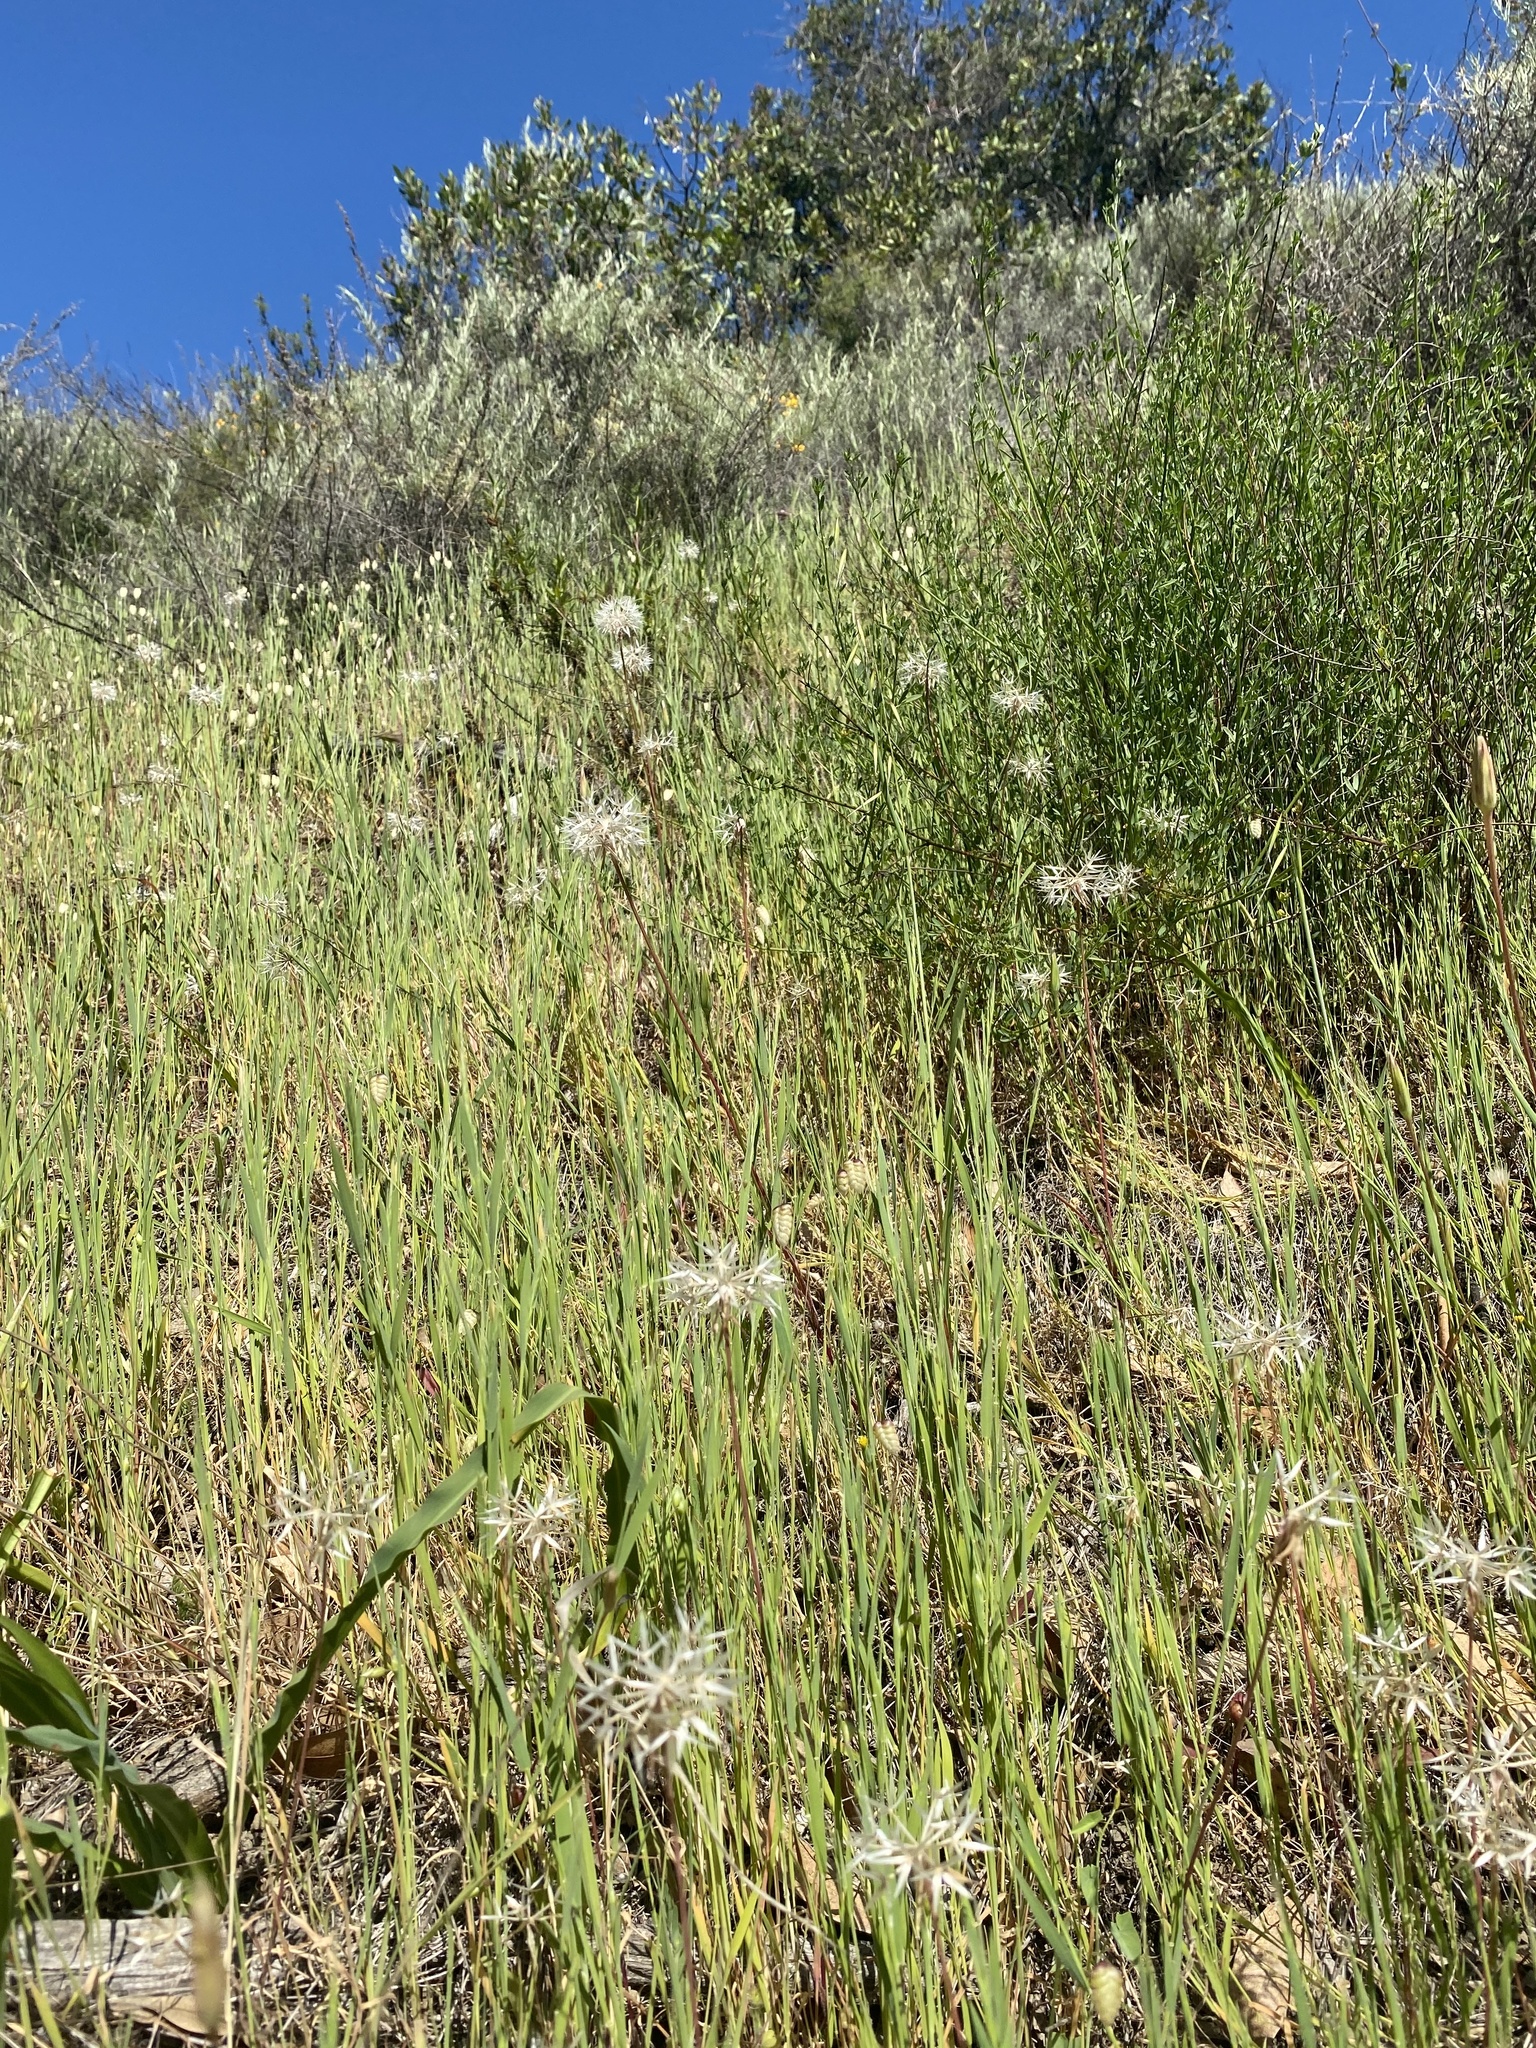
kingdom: Plantae
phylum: Tracheophyta
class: Magnoliopsida
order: Asterales
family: Asteraceae
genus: Microseris
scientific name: Microseris lindleyi
